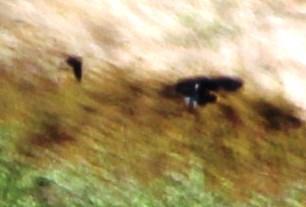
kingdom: Animalia
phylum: Chordata
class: Aves
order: Falconiformes
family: Falconidae
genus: Falco
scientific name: Falco biarmicus
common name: Lanner falcon
